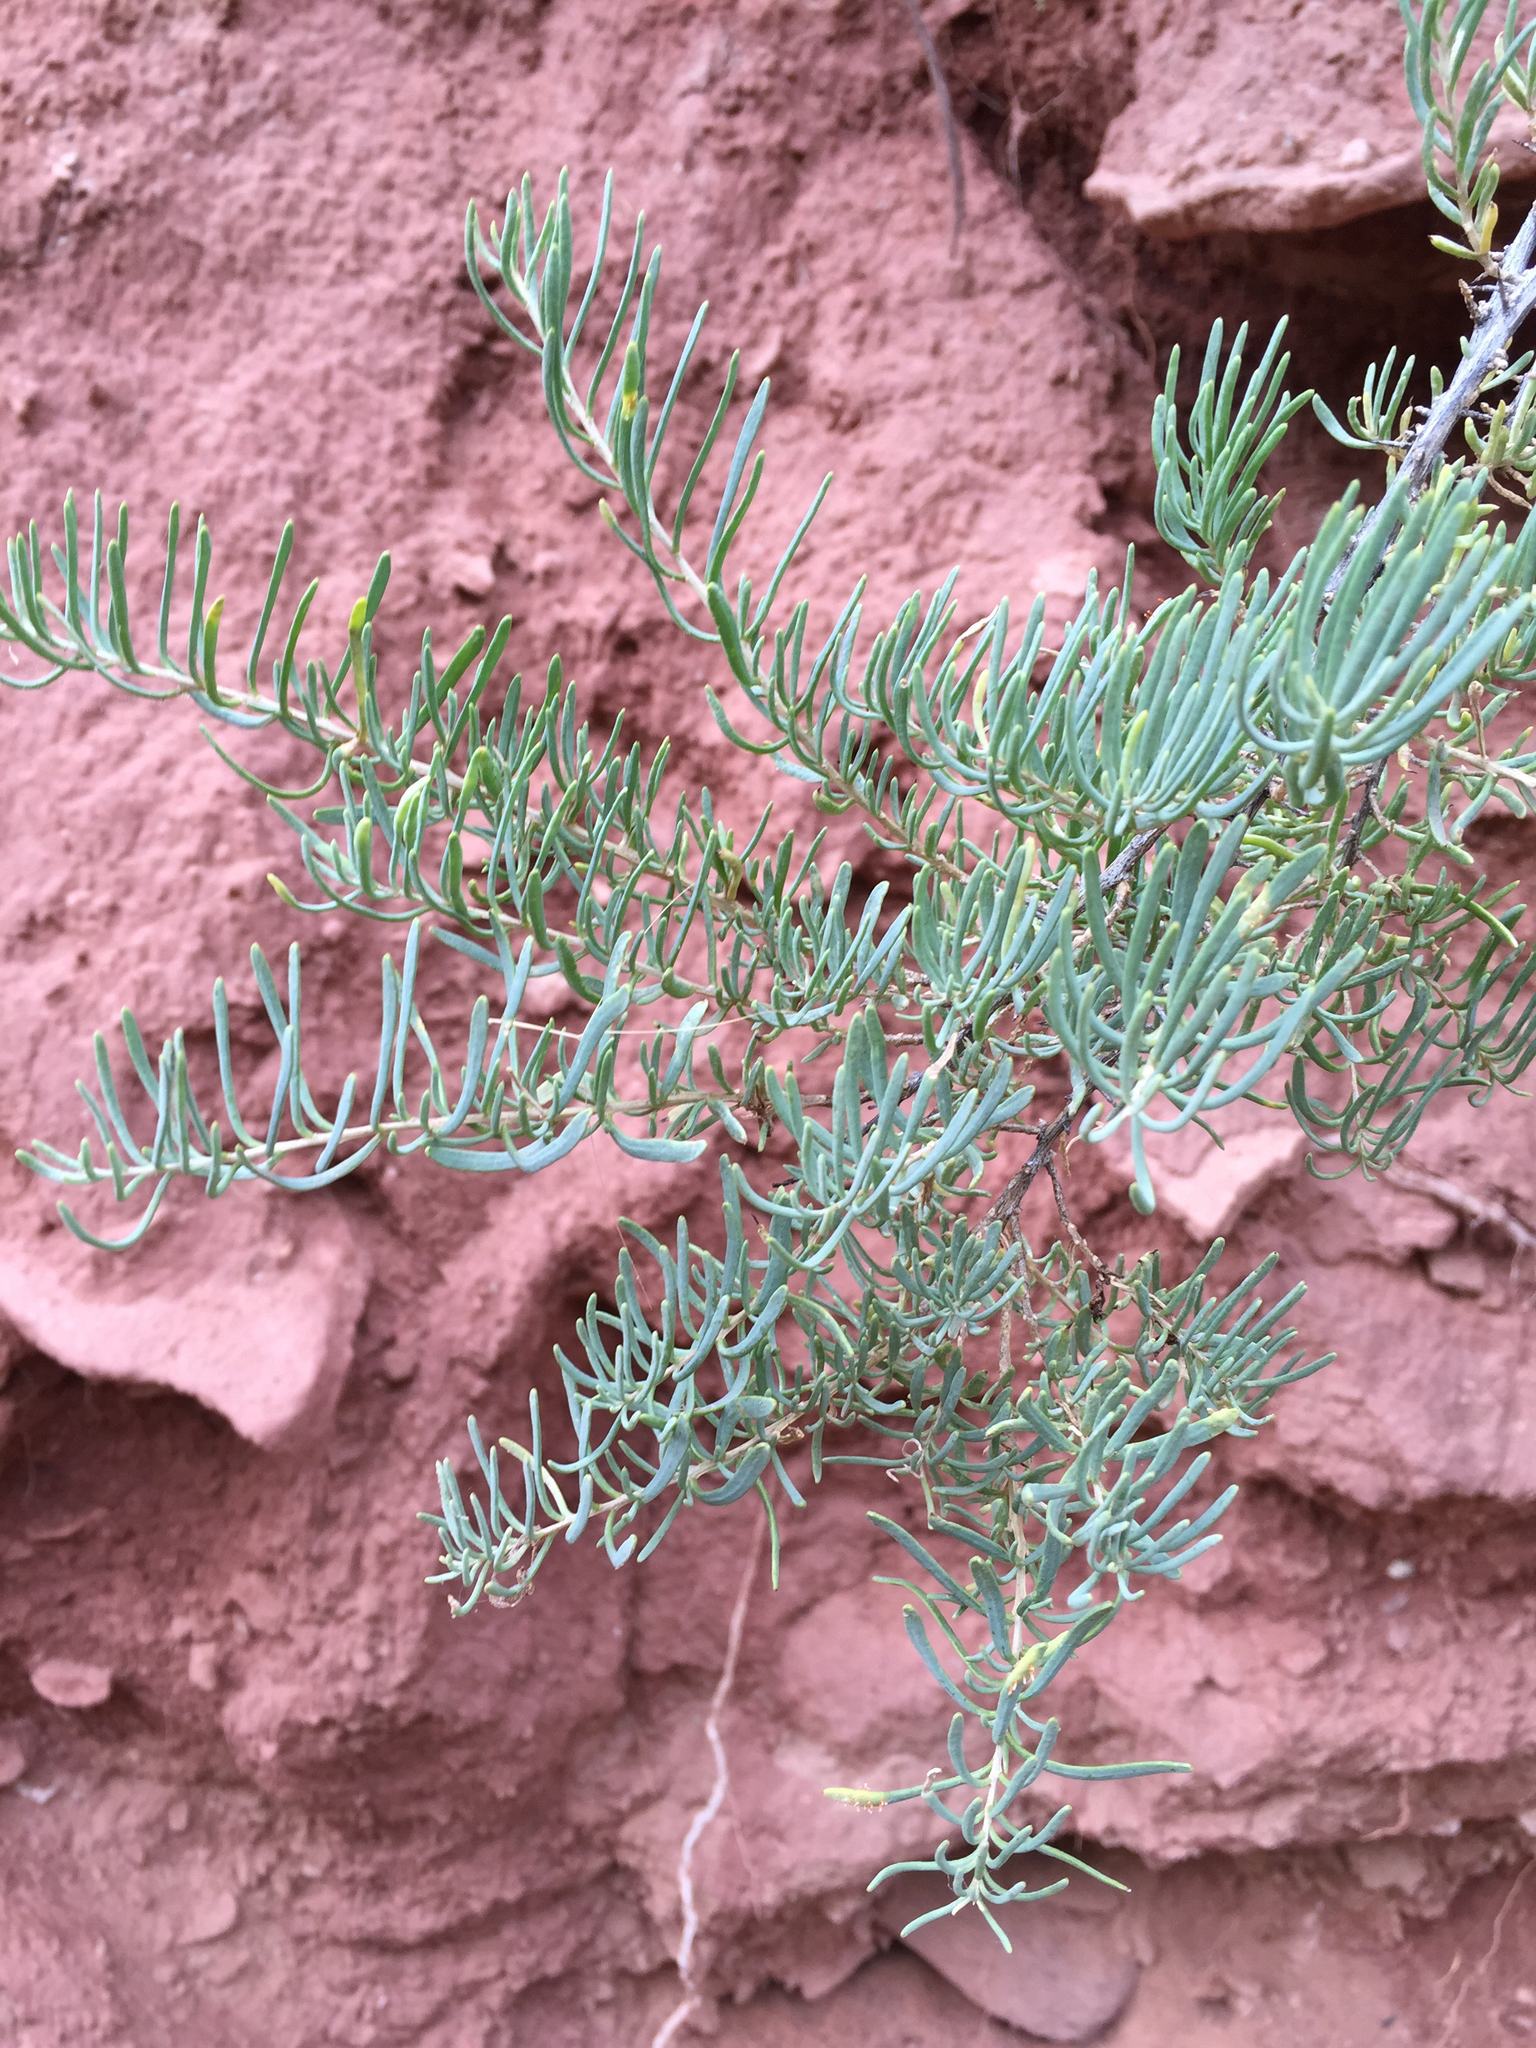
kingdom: Plantae
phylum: Tracheophyta
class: Magnoliopsida
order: Caryophyllales
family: Sarcobataceae
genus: Sarcobatus
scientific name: Sarcobatus vermiculatus
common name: Greasewood
